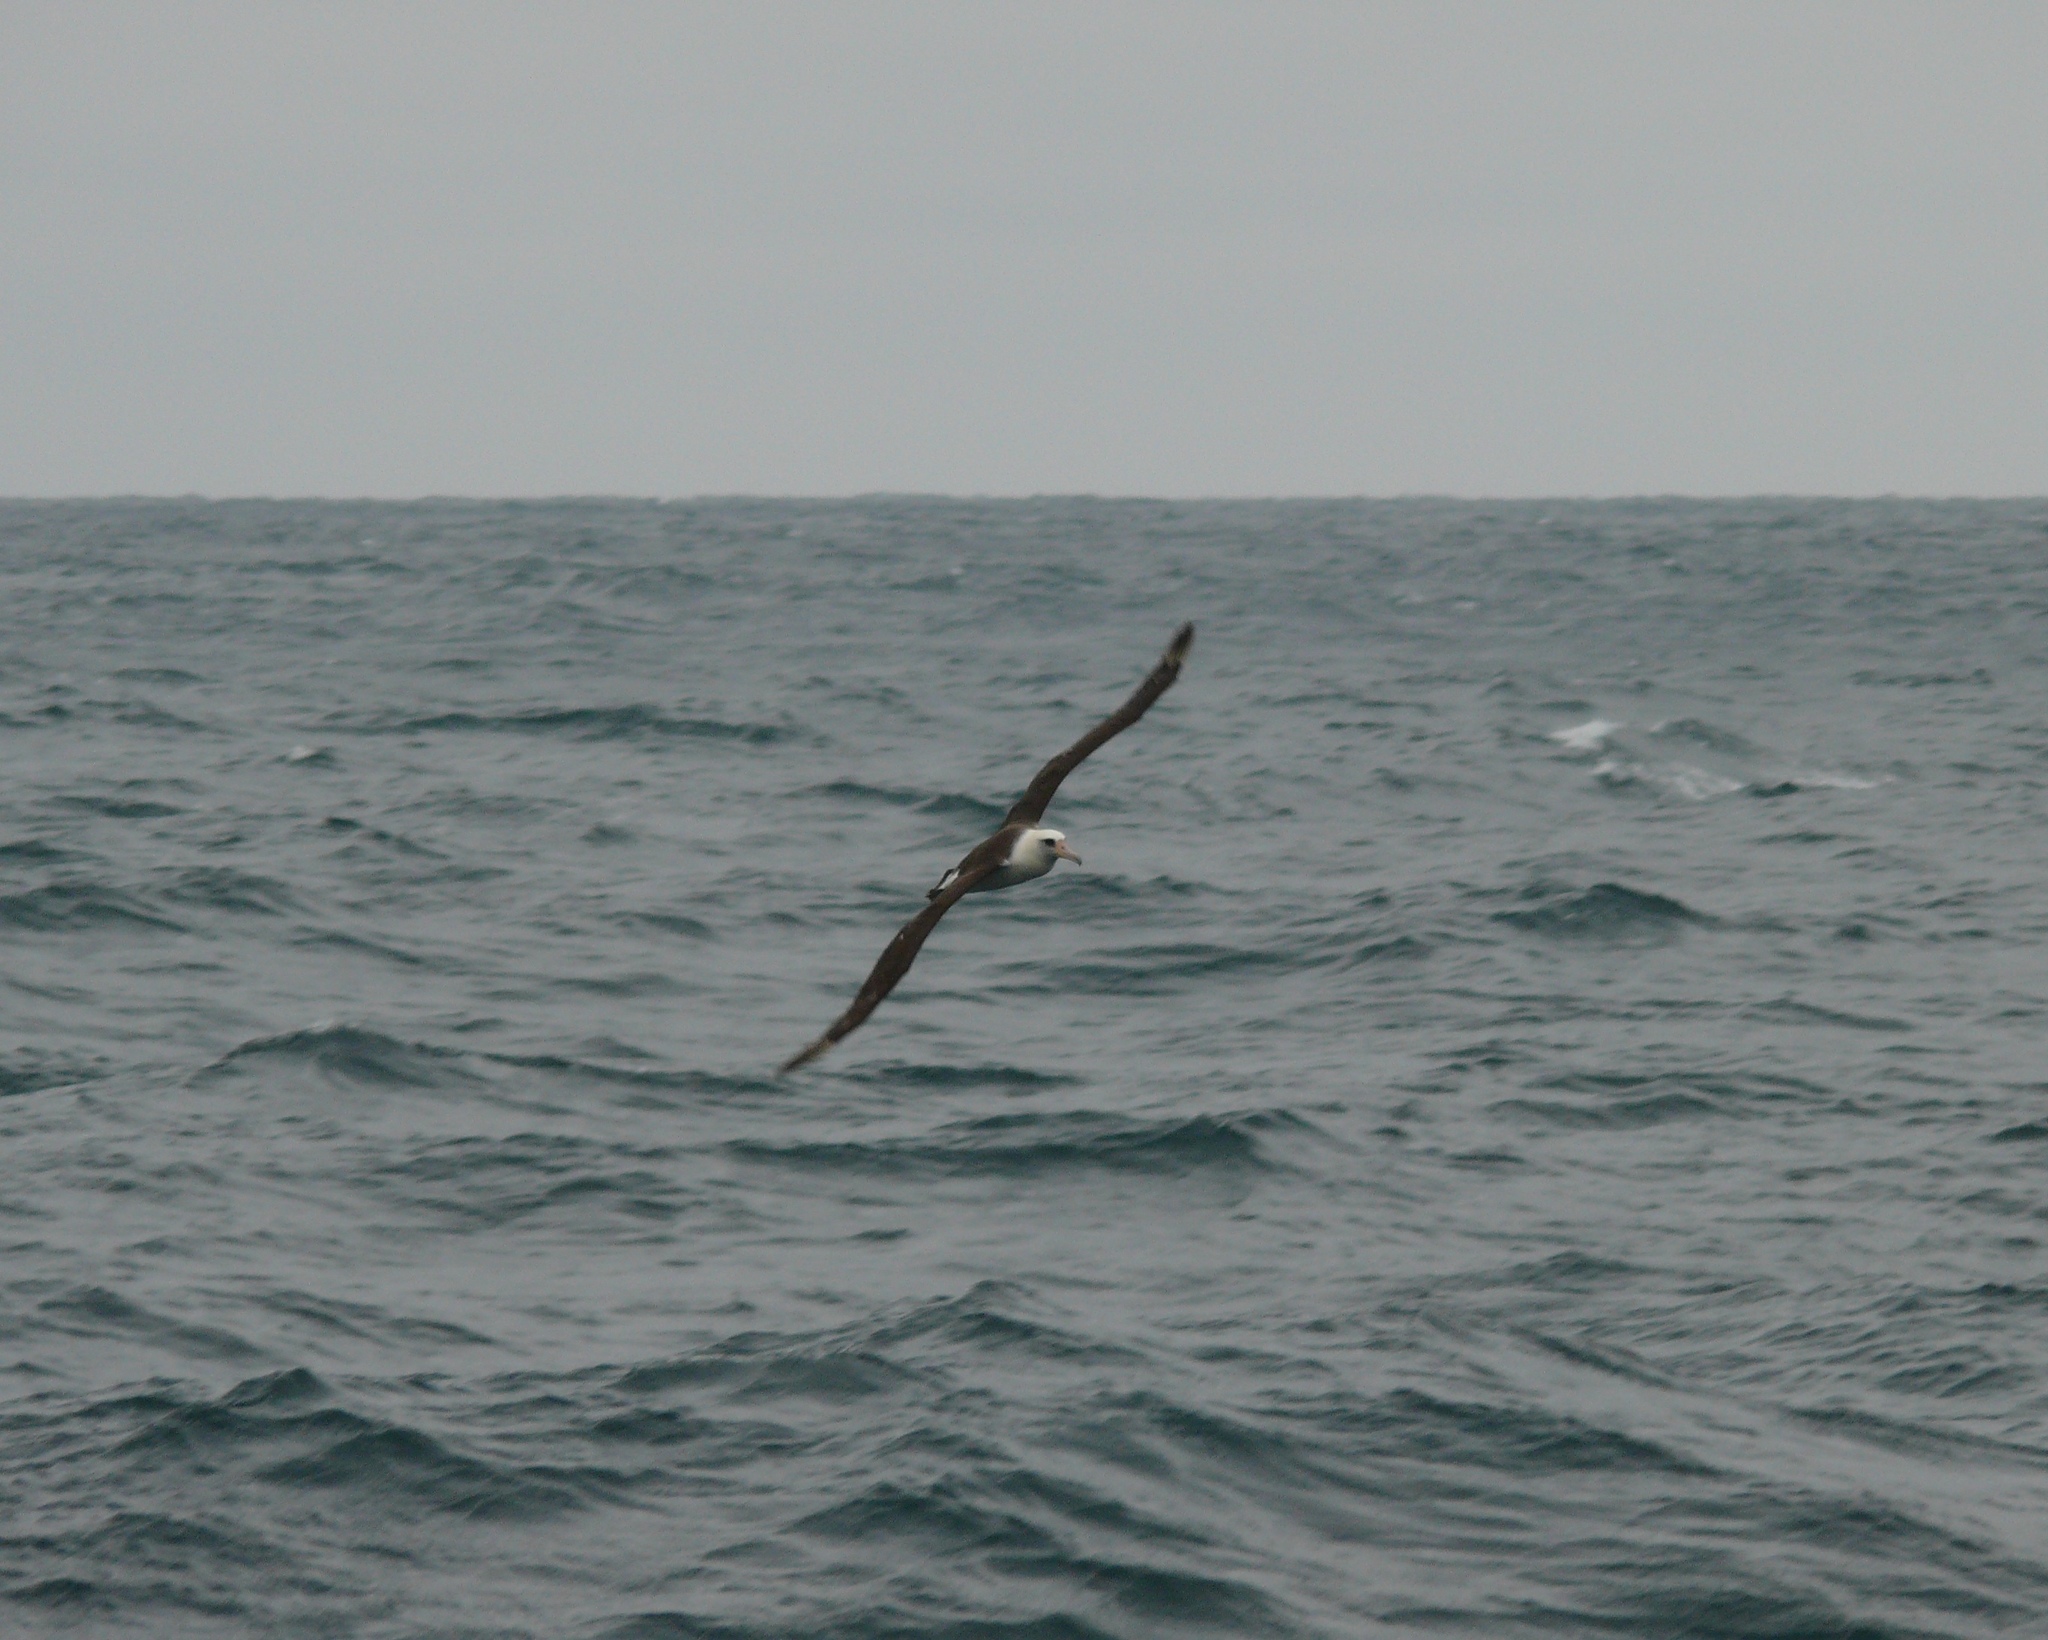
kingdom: Animalia
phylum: Chordata
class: Aves
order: Procellariiformes
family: Diomedeidae
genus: Phoebastria
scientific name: Phoebastria immutabilis
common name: Laysan albatross
